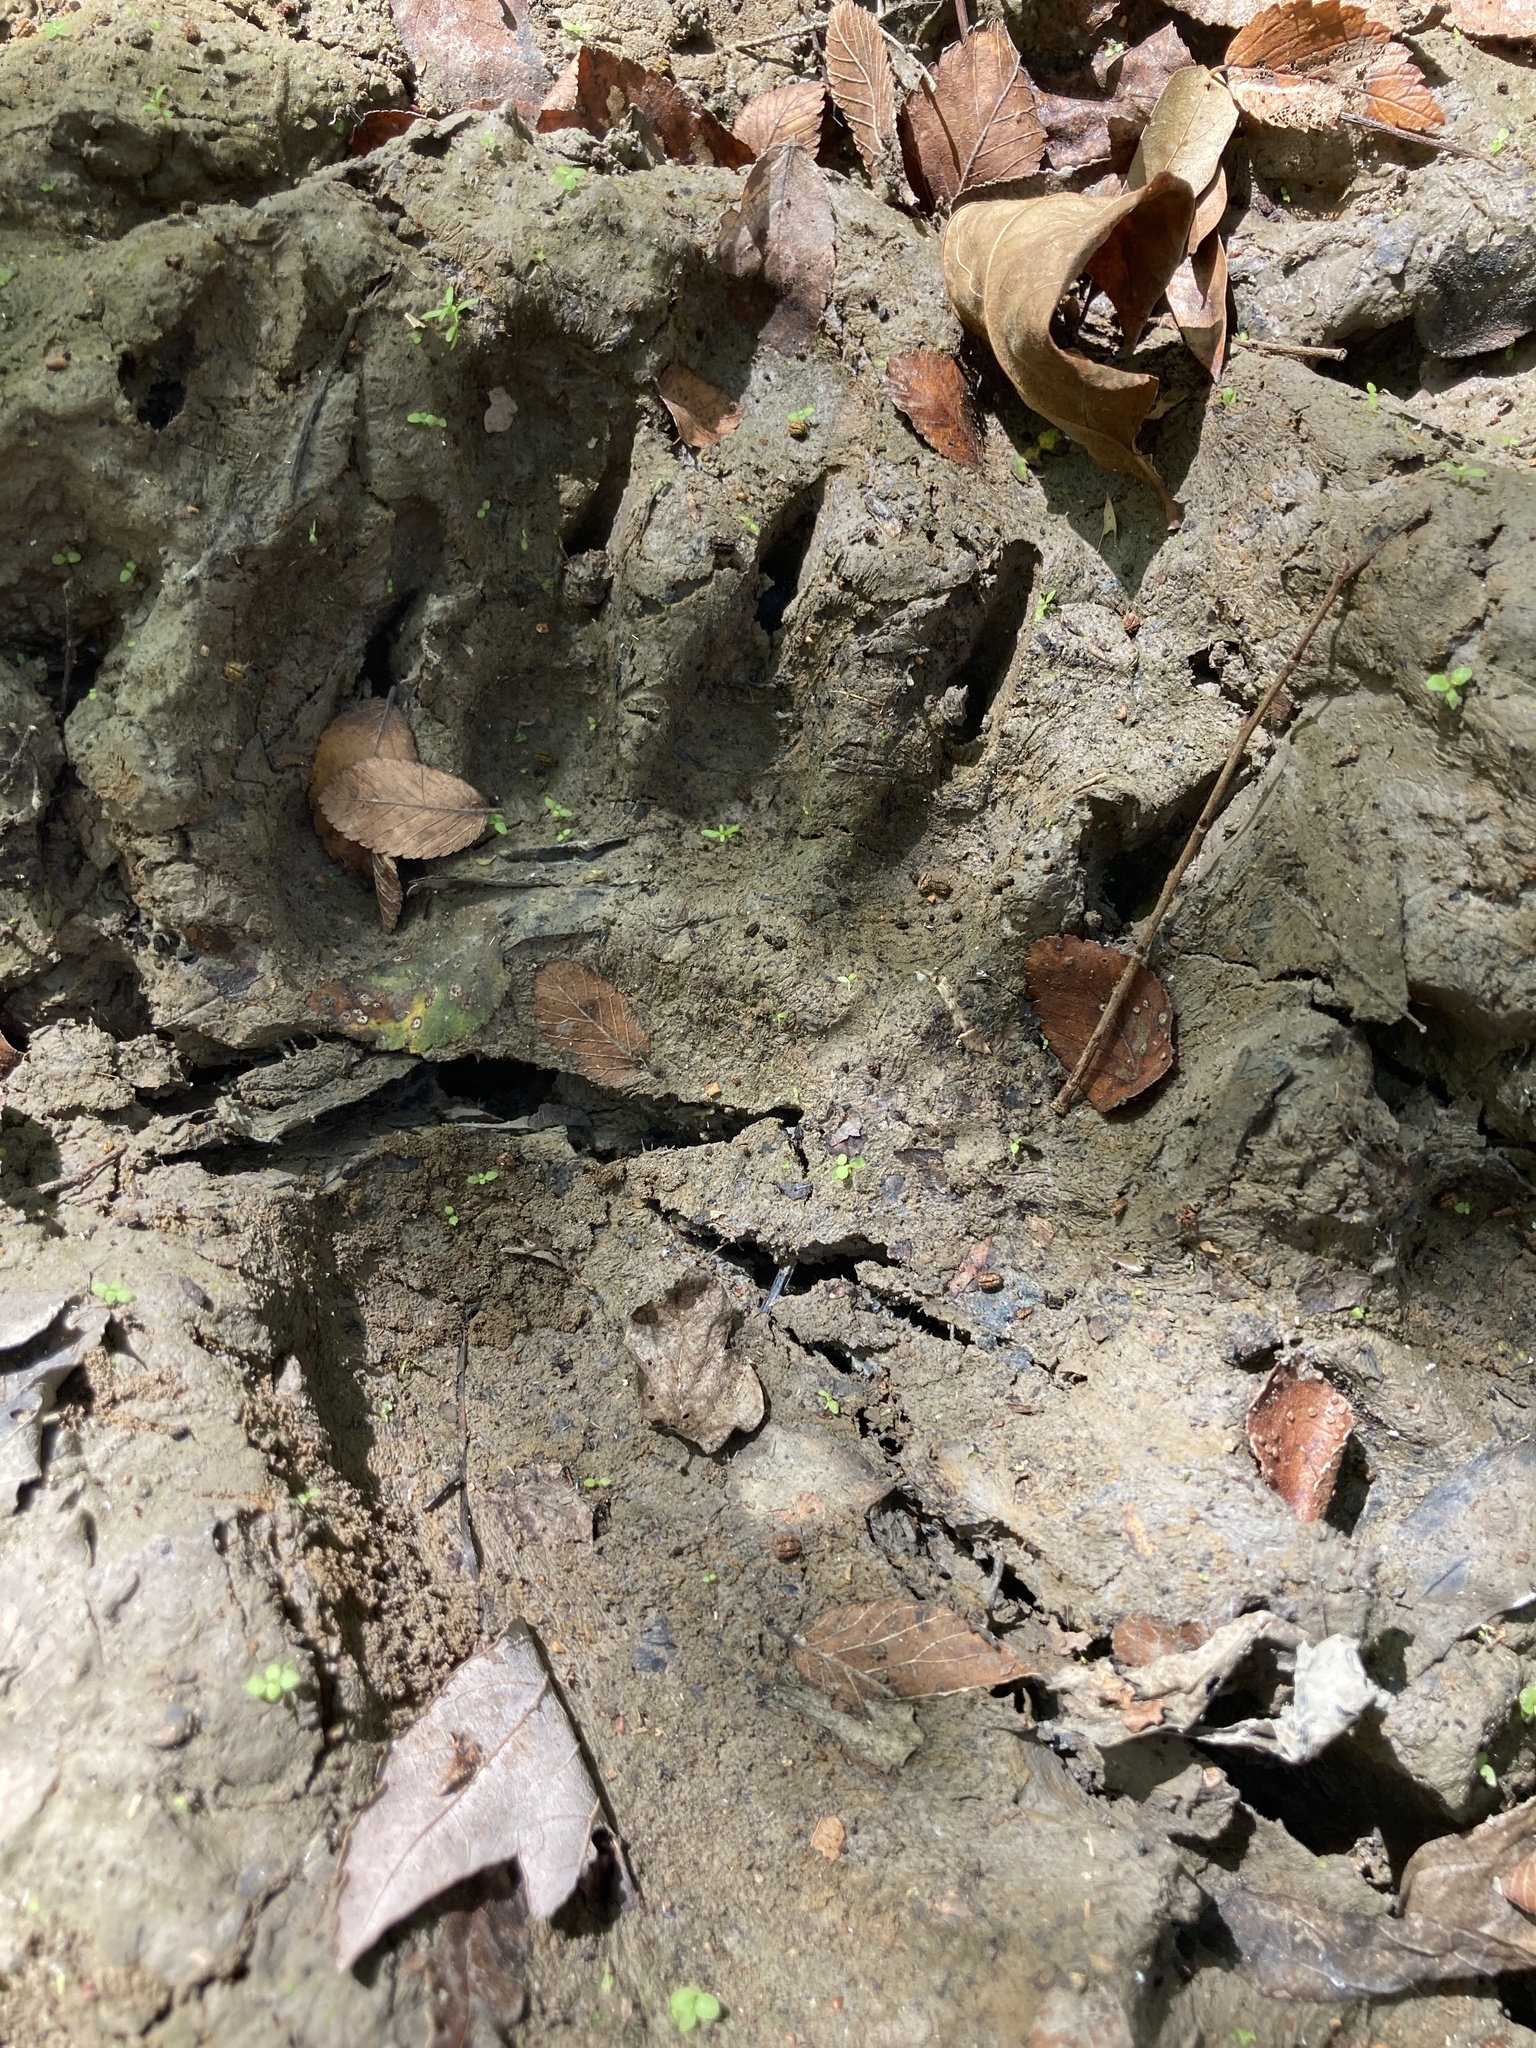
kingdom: Animalia
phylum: Chordata
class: Mammalia
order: Carnivora
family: Ursidae
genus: Ursus
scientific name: Ursus americanus
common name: American black bear
